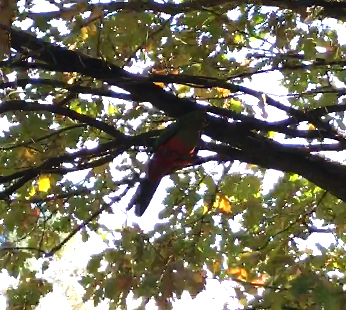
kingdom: Animalia
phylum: Chordata
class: Aves
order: Psittaciformes
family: Psittacidae
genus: Alisterus
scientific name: Alisterus scapularis
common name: Australian king parrot
